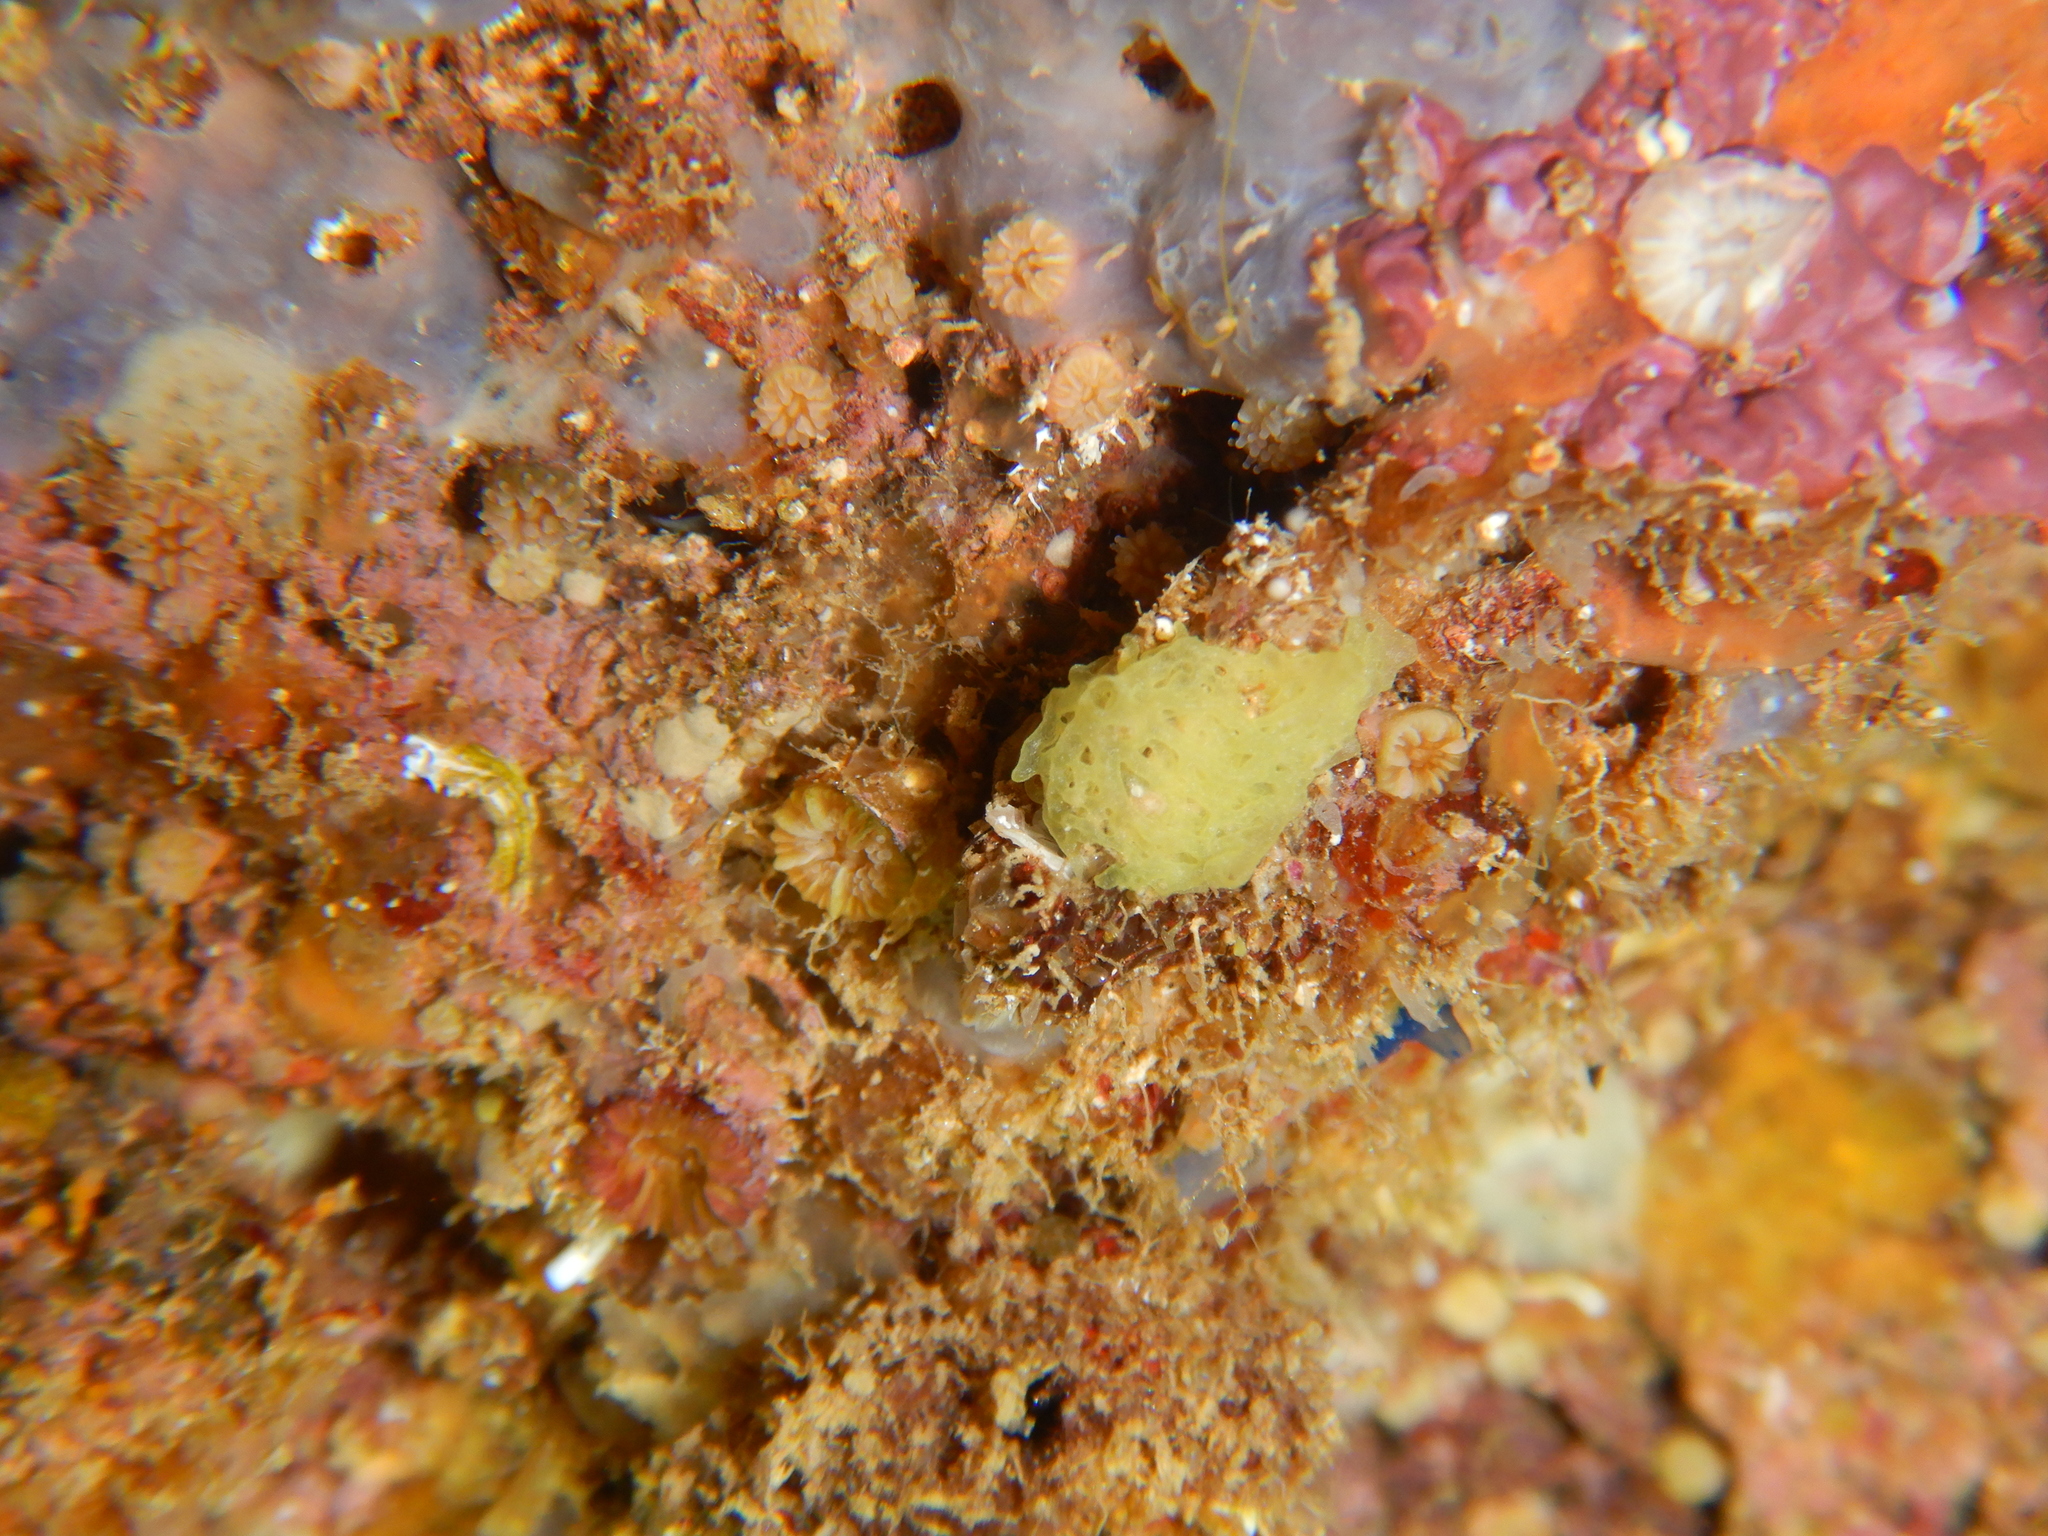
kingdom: Animalia
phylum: Porifera
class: Calcarea
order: Clathrinida
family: Clathrinidae
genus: Clathrina
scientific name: Clathrina clathrus
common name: Yellow clathrina
